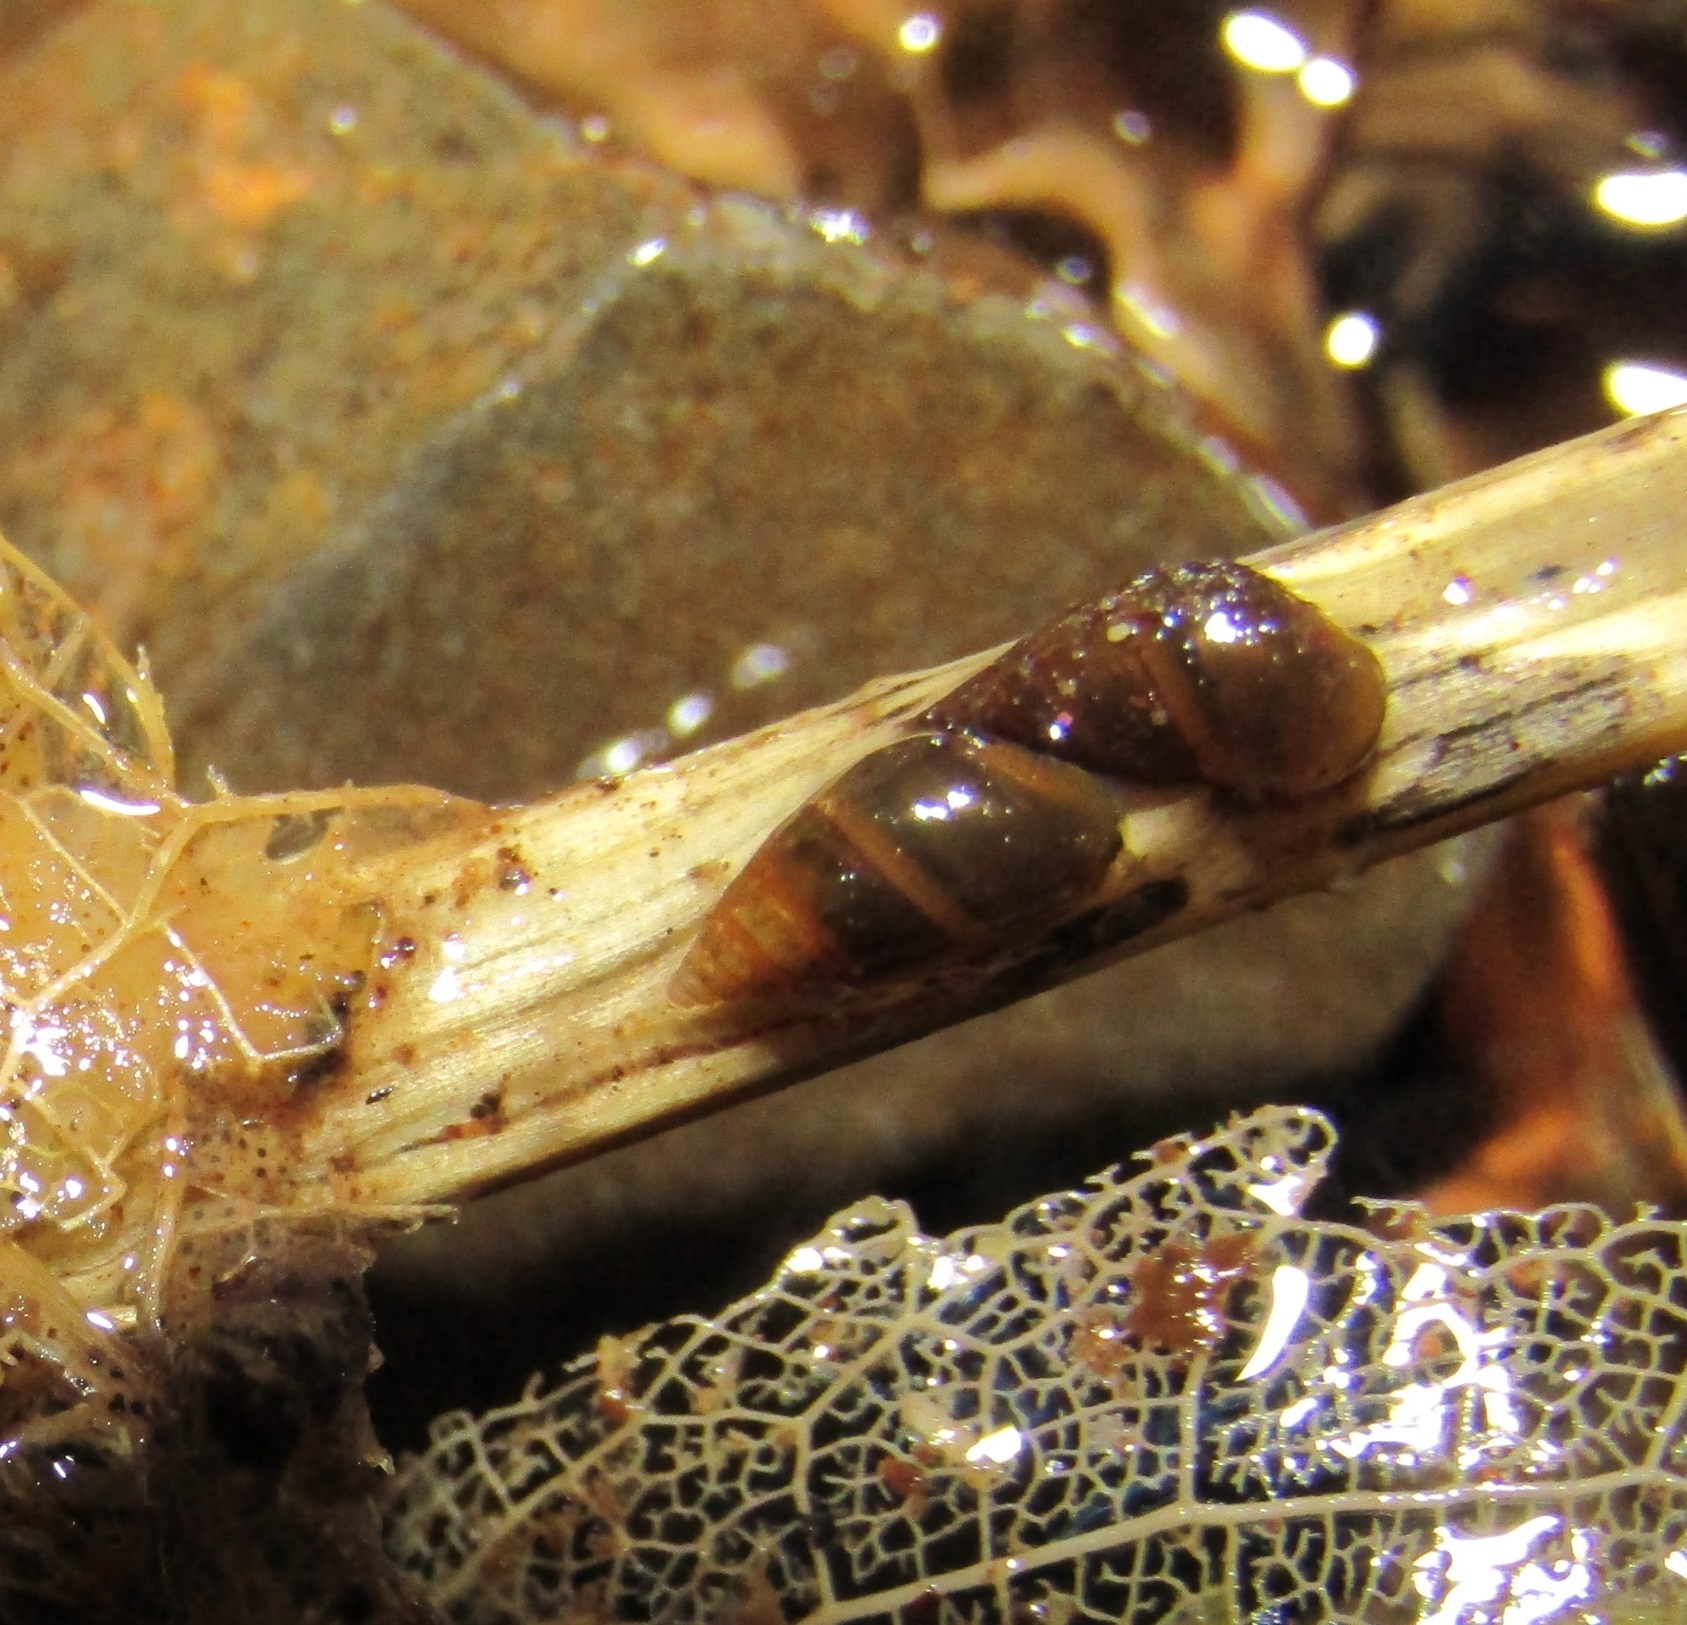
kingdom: Animalia
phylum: Mollusca
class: Gastropoda
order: Littorinimorpha
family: Tateidae
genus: Potamopyrgus
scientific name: Potamopyrgus antipodarum
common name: Jenkins' spire snail
